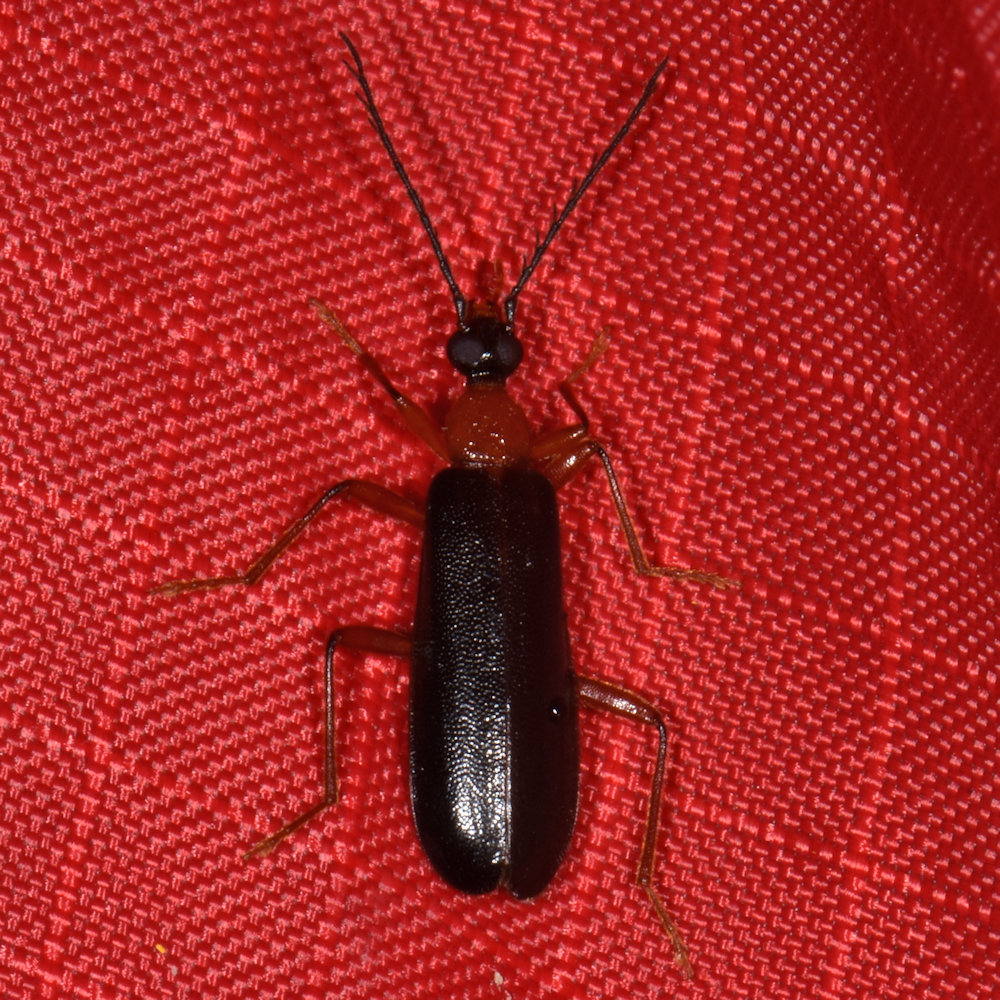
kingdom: Animalia
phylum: Arthropoda
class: Insecta
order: Coleoptera
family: Pyrochroidae
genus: Dendroides
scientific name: Dendroides canadensis
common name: Canada fire-colored beetle
